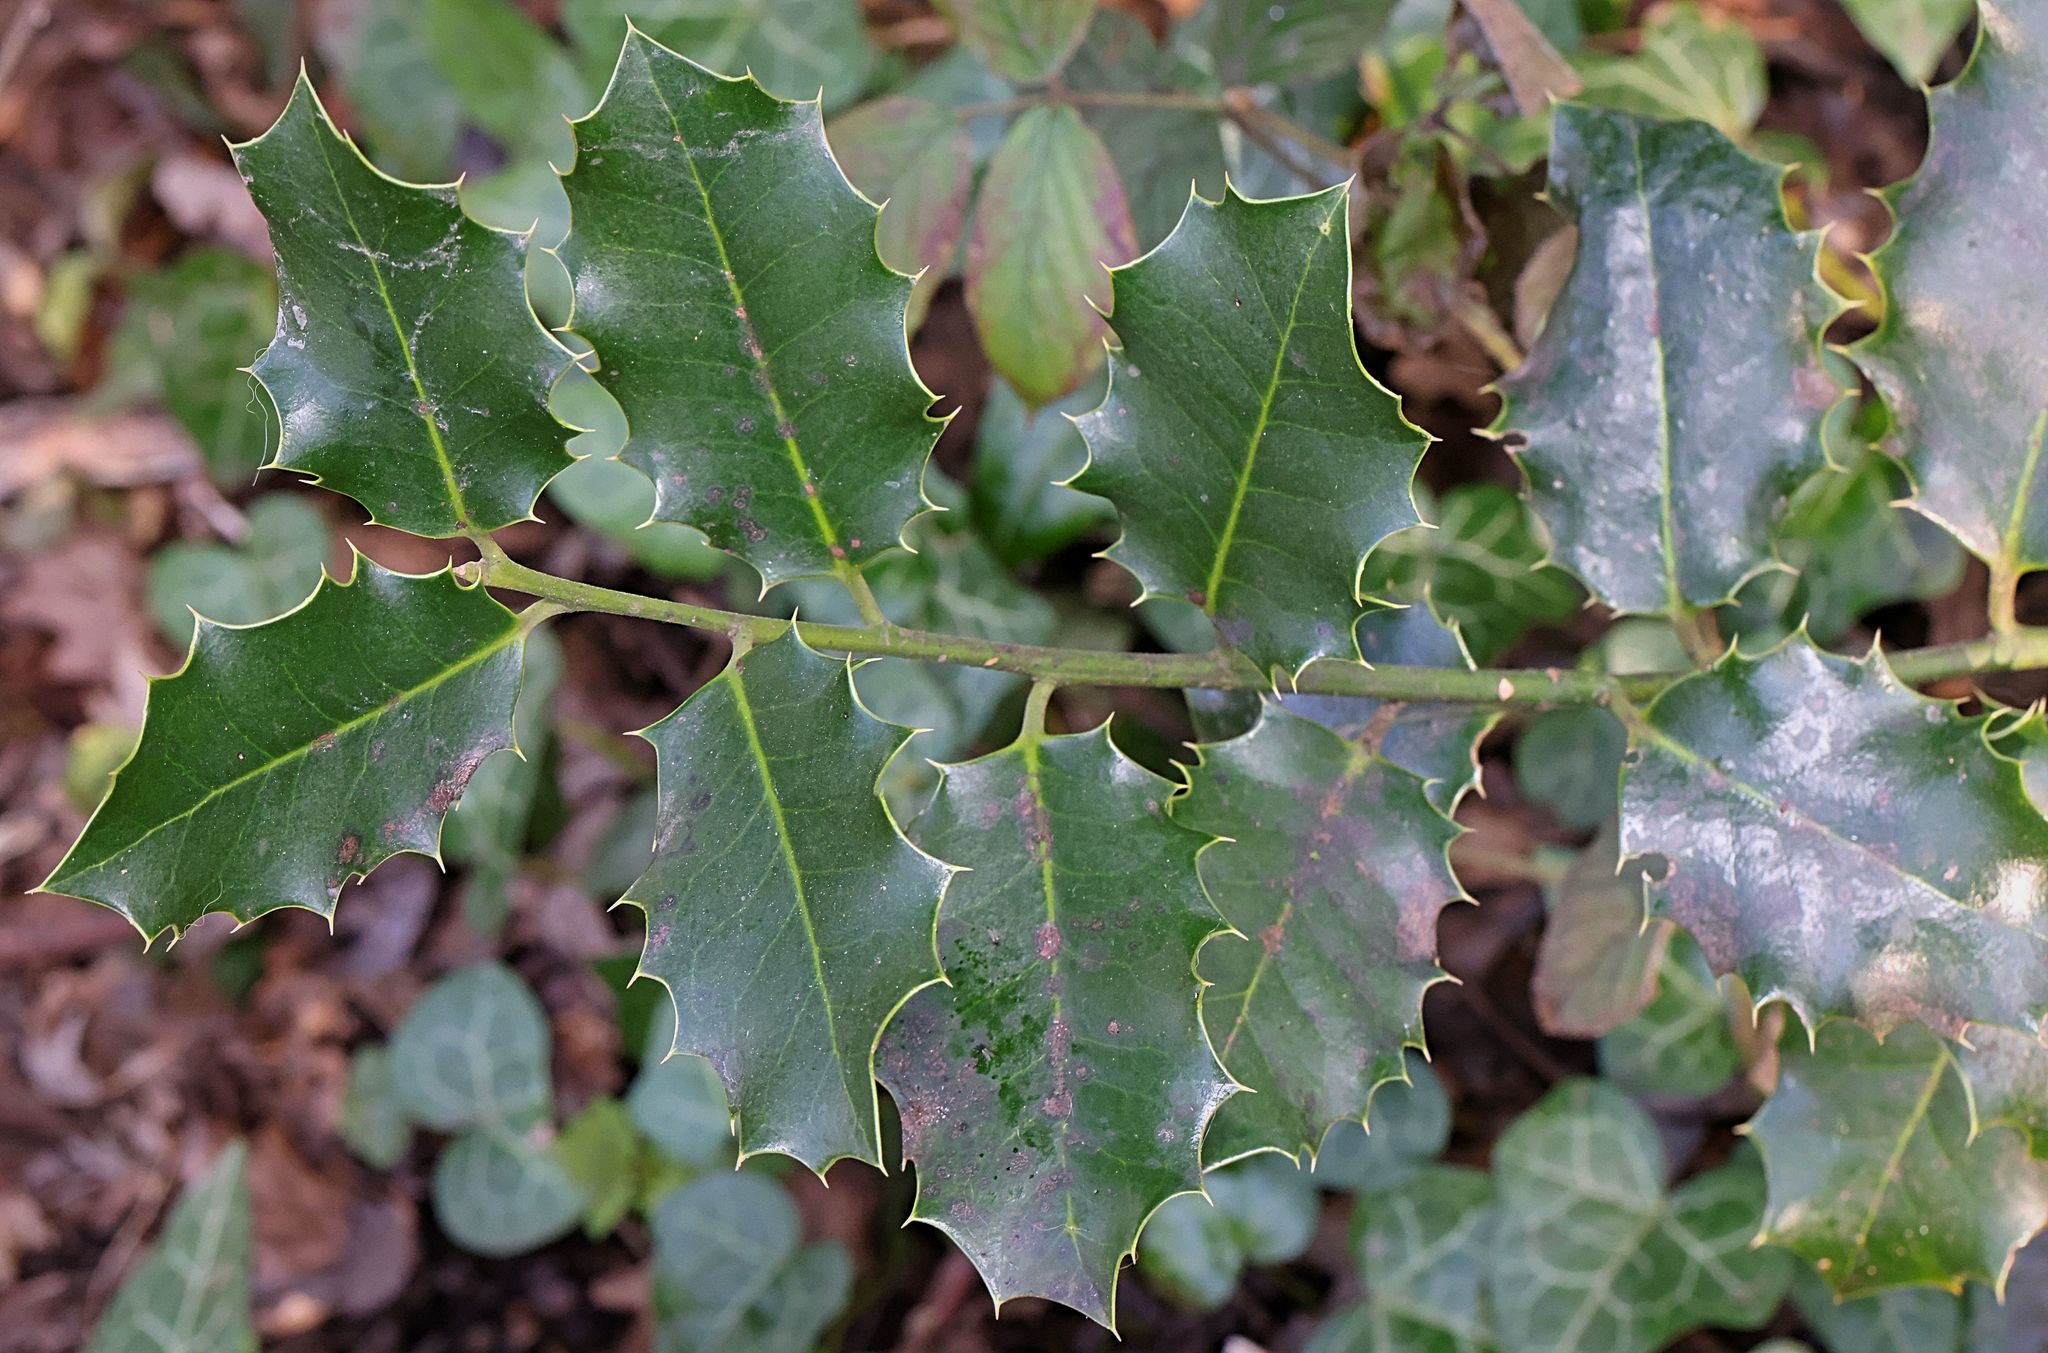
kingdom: Plantae
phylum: Tracheophyta
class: Magnoliopsida
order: Aquifoliales
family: Aquifoliaceae
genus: Ilex
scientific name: Ilex aquifolium
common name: English holly
